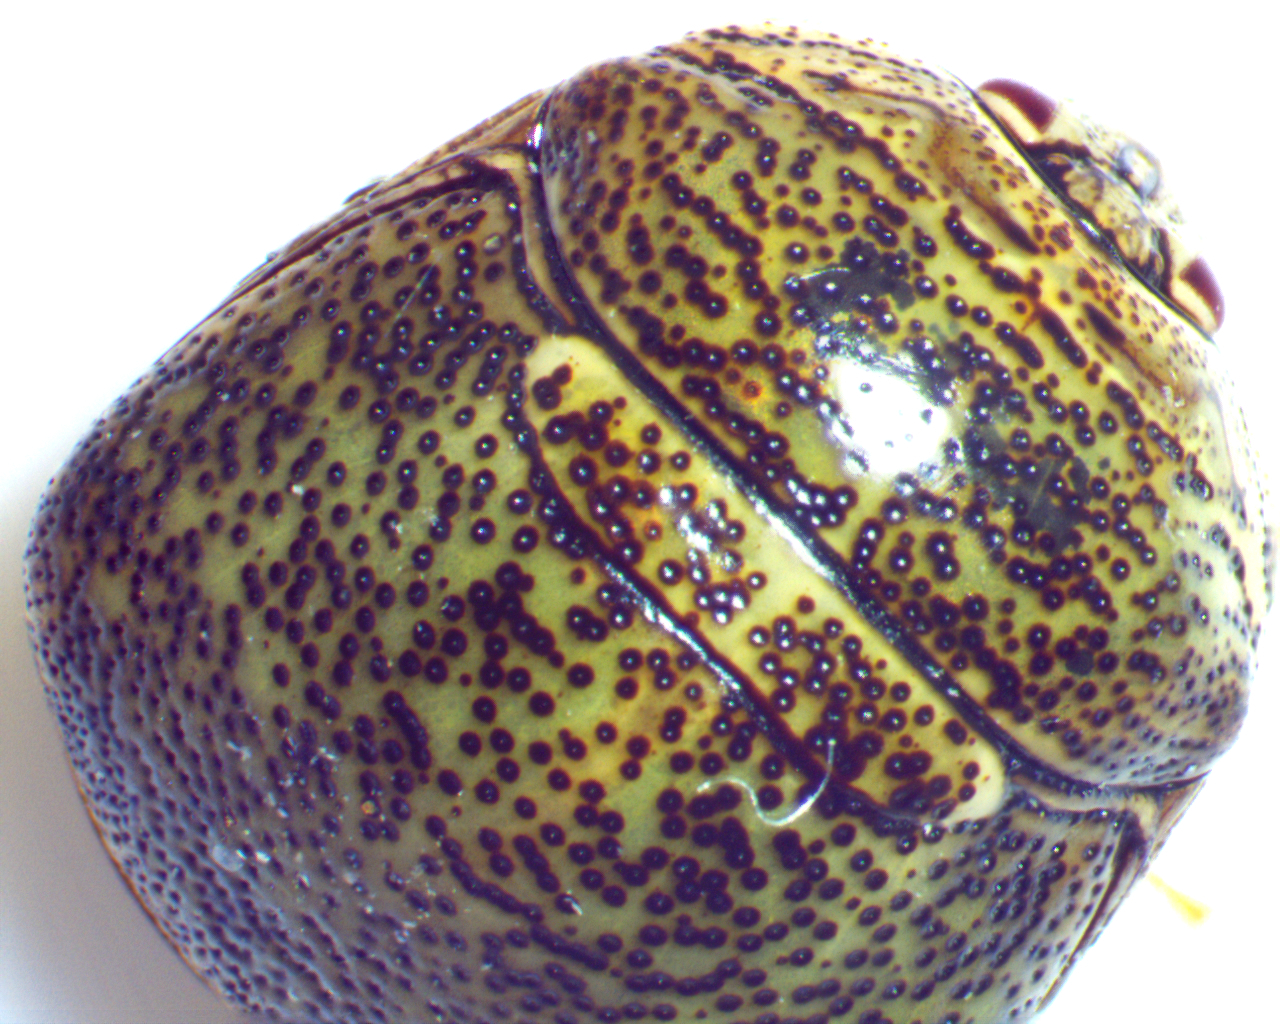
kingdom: Animalia
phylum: Arthropoda
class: Insecta
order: Hemiptera
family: Plataspidae
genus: Megacopta
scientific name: Megacopta cribraria
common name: Bean plataspid
